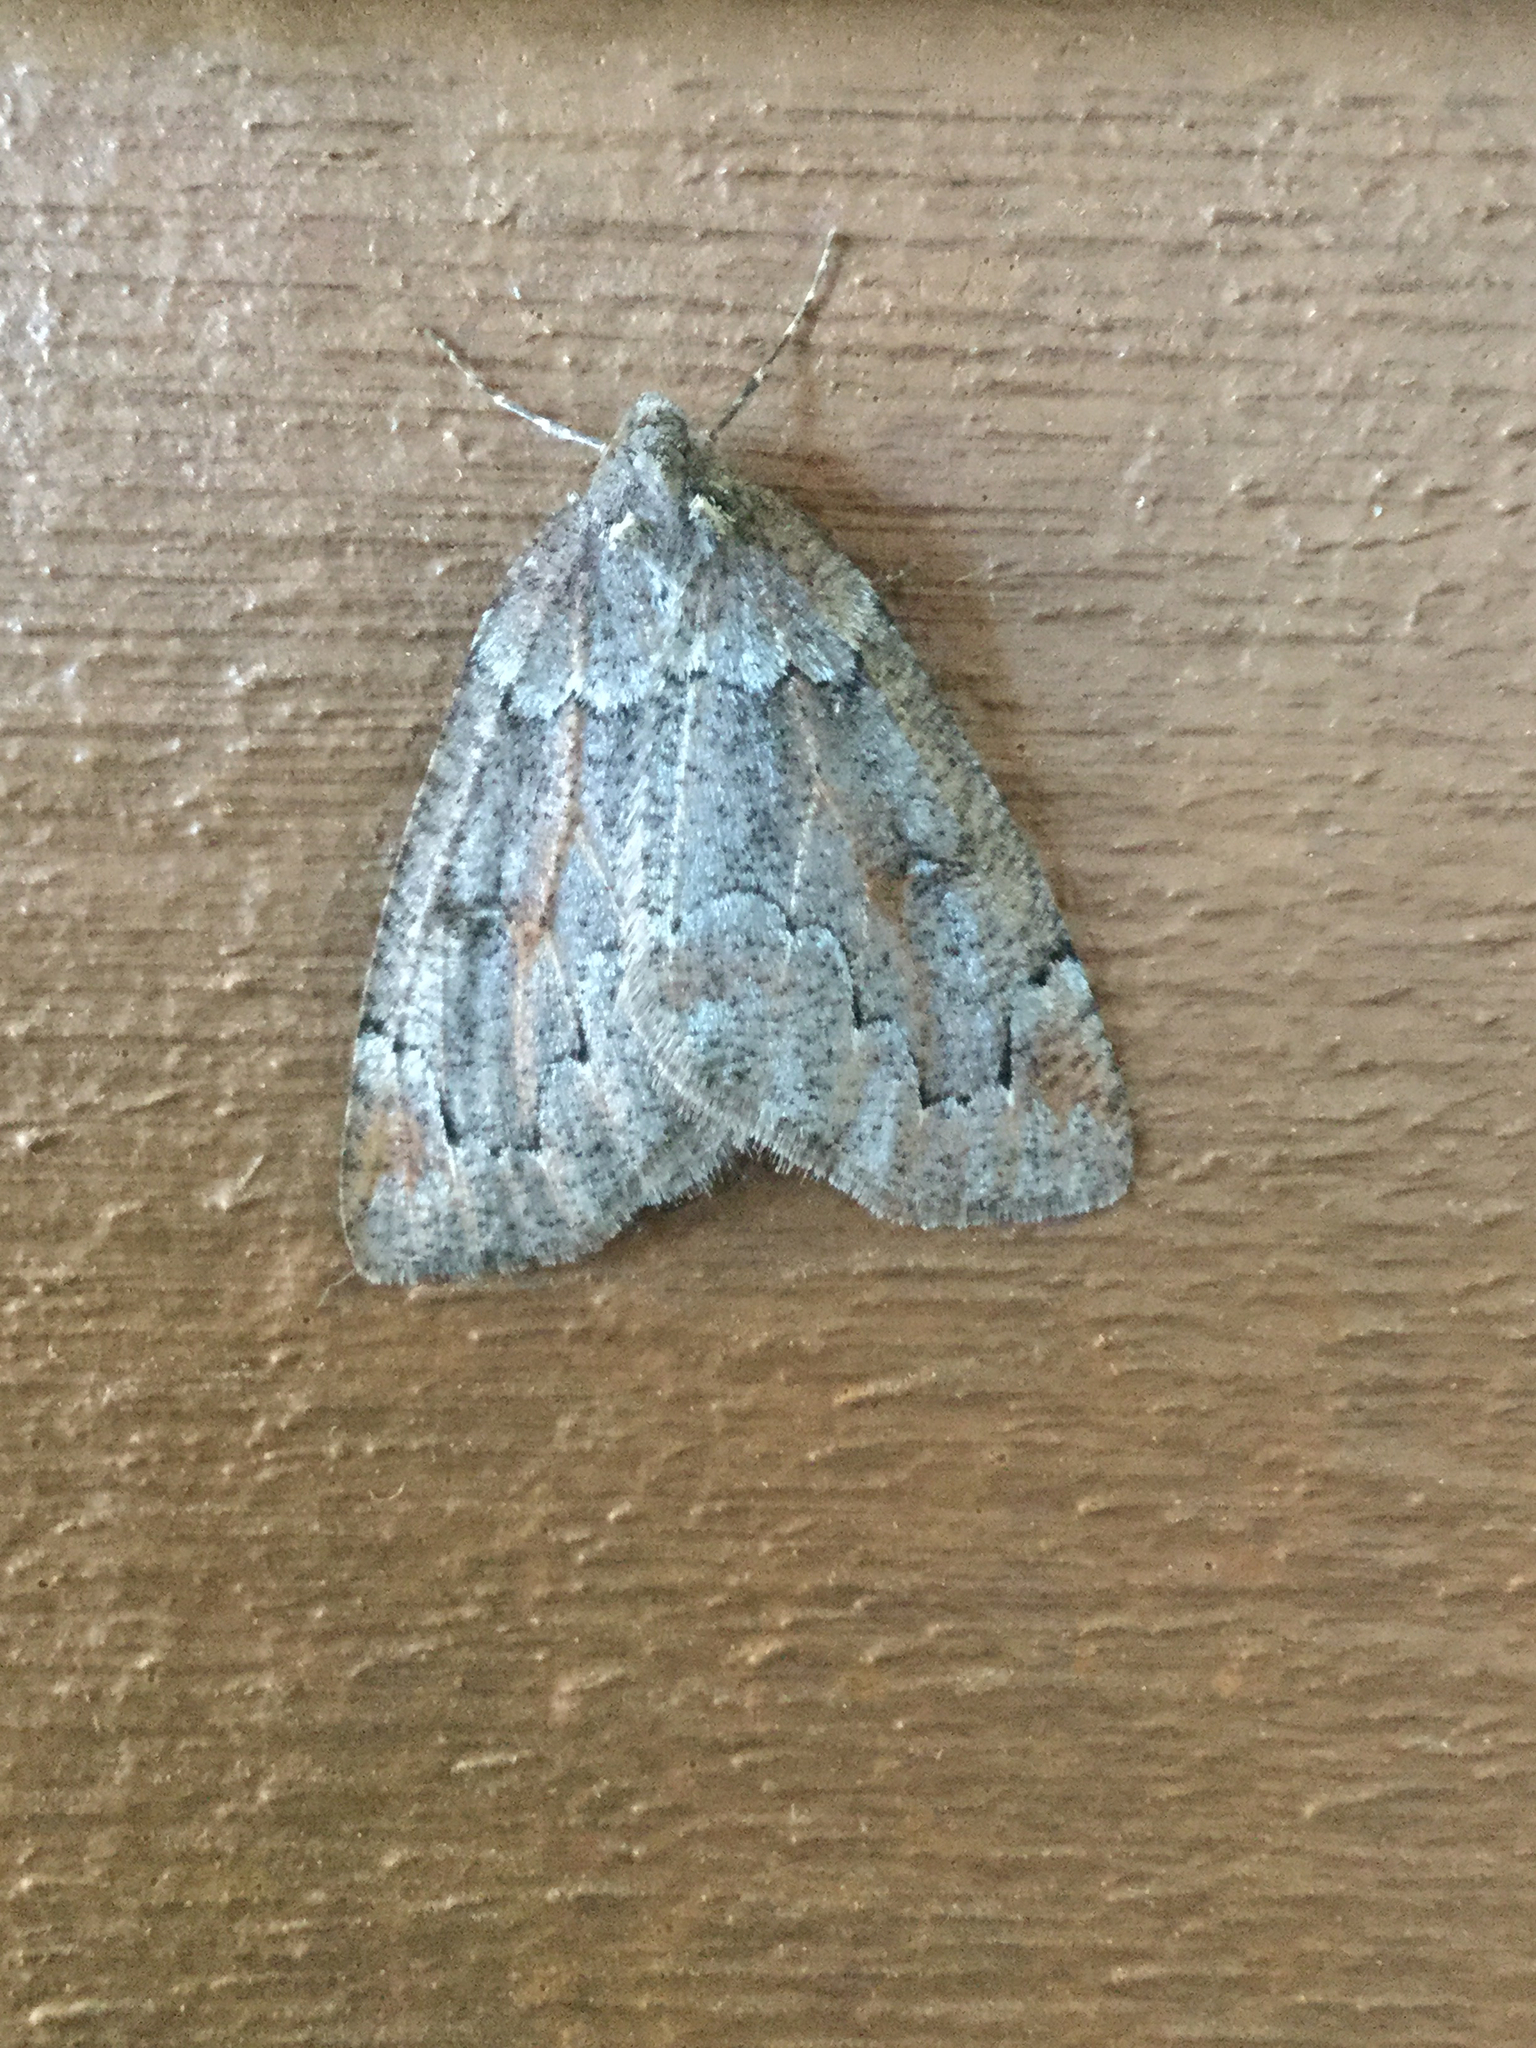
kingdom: Animalia
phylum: Arthropoda
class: Insecta
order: Lepidoptera
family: Geometridae
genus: Spodolepis
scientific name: Spodolepis danbyi
